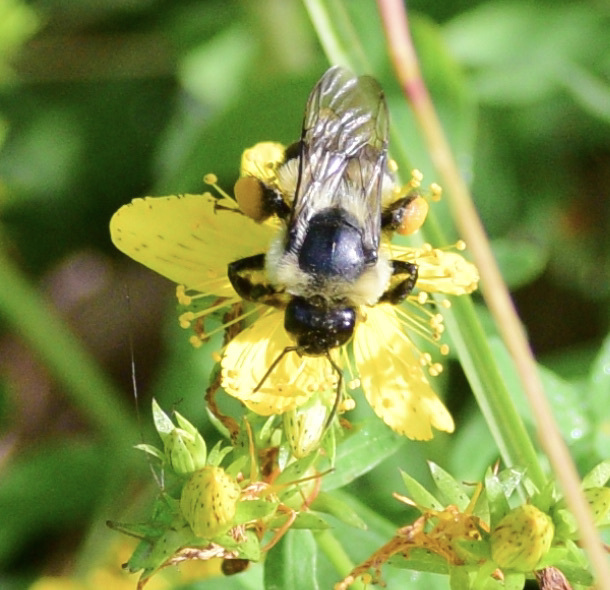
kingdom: Animalia
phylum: Arthropoda
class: Insecta
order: Hymenoptera
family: Apidae
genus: Bombus
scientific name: Bombus impatiens
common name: Common eastern bumble bee
